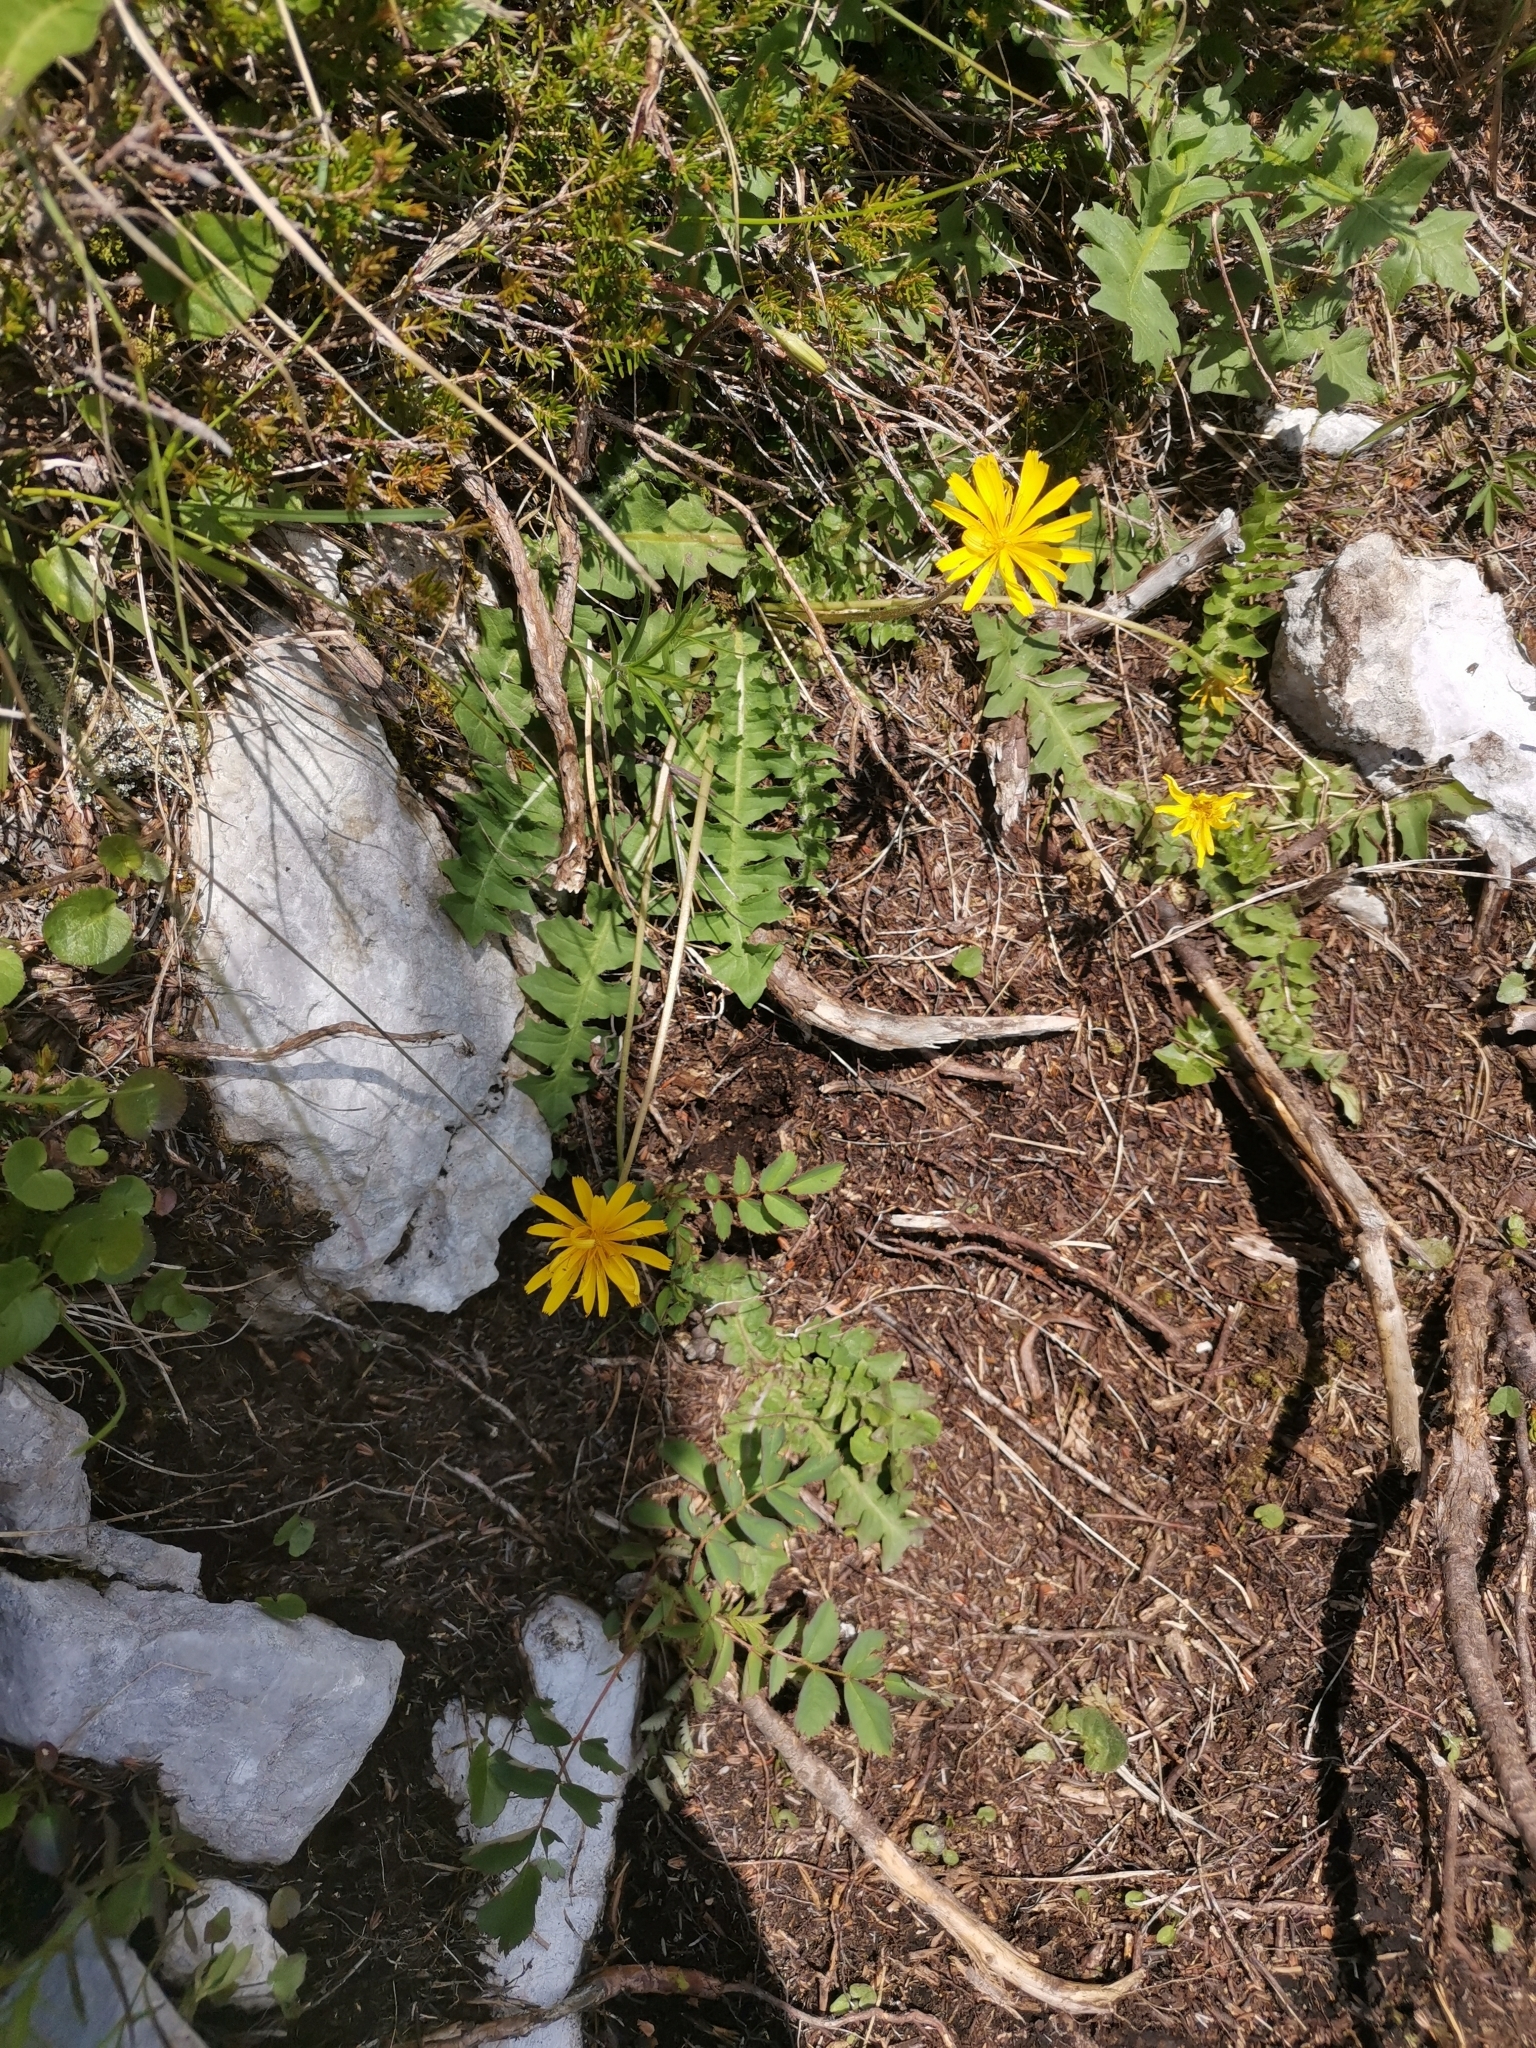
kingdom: Plantae
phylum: Tracheophyta
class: Magnoliopsida
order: Asterales
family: Asteraceae
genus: Aposeris
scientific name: Aposeris foetida
